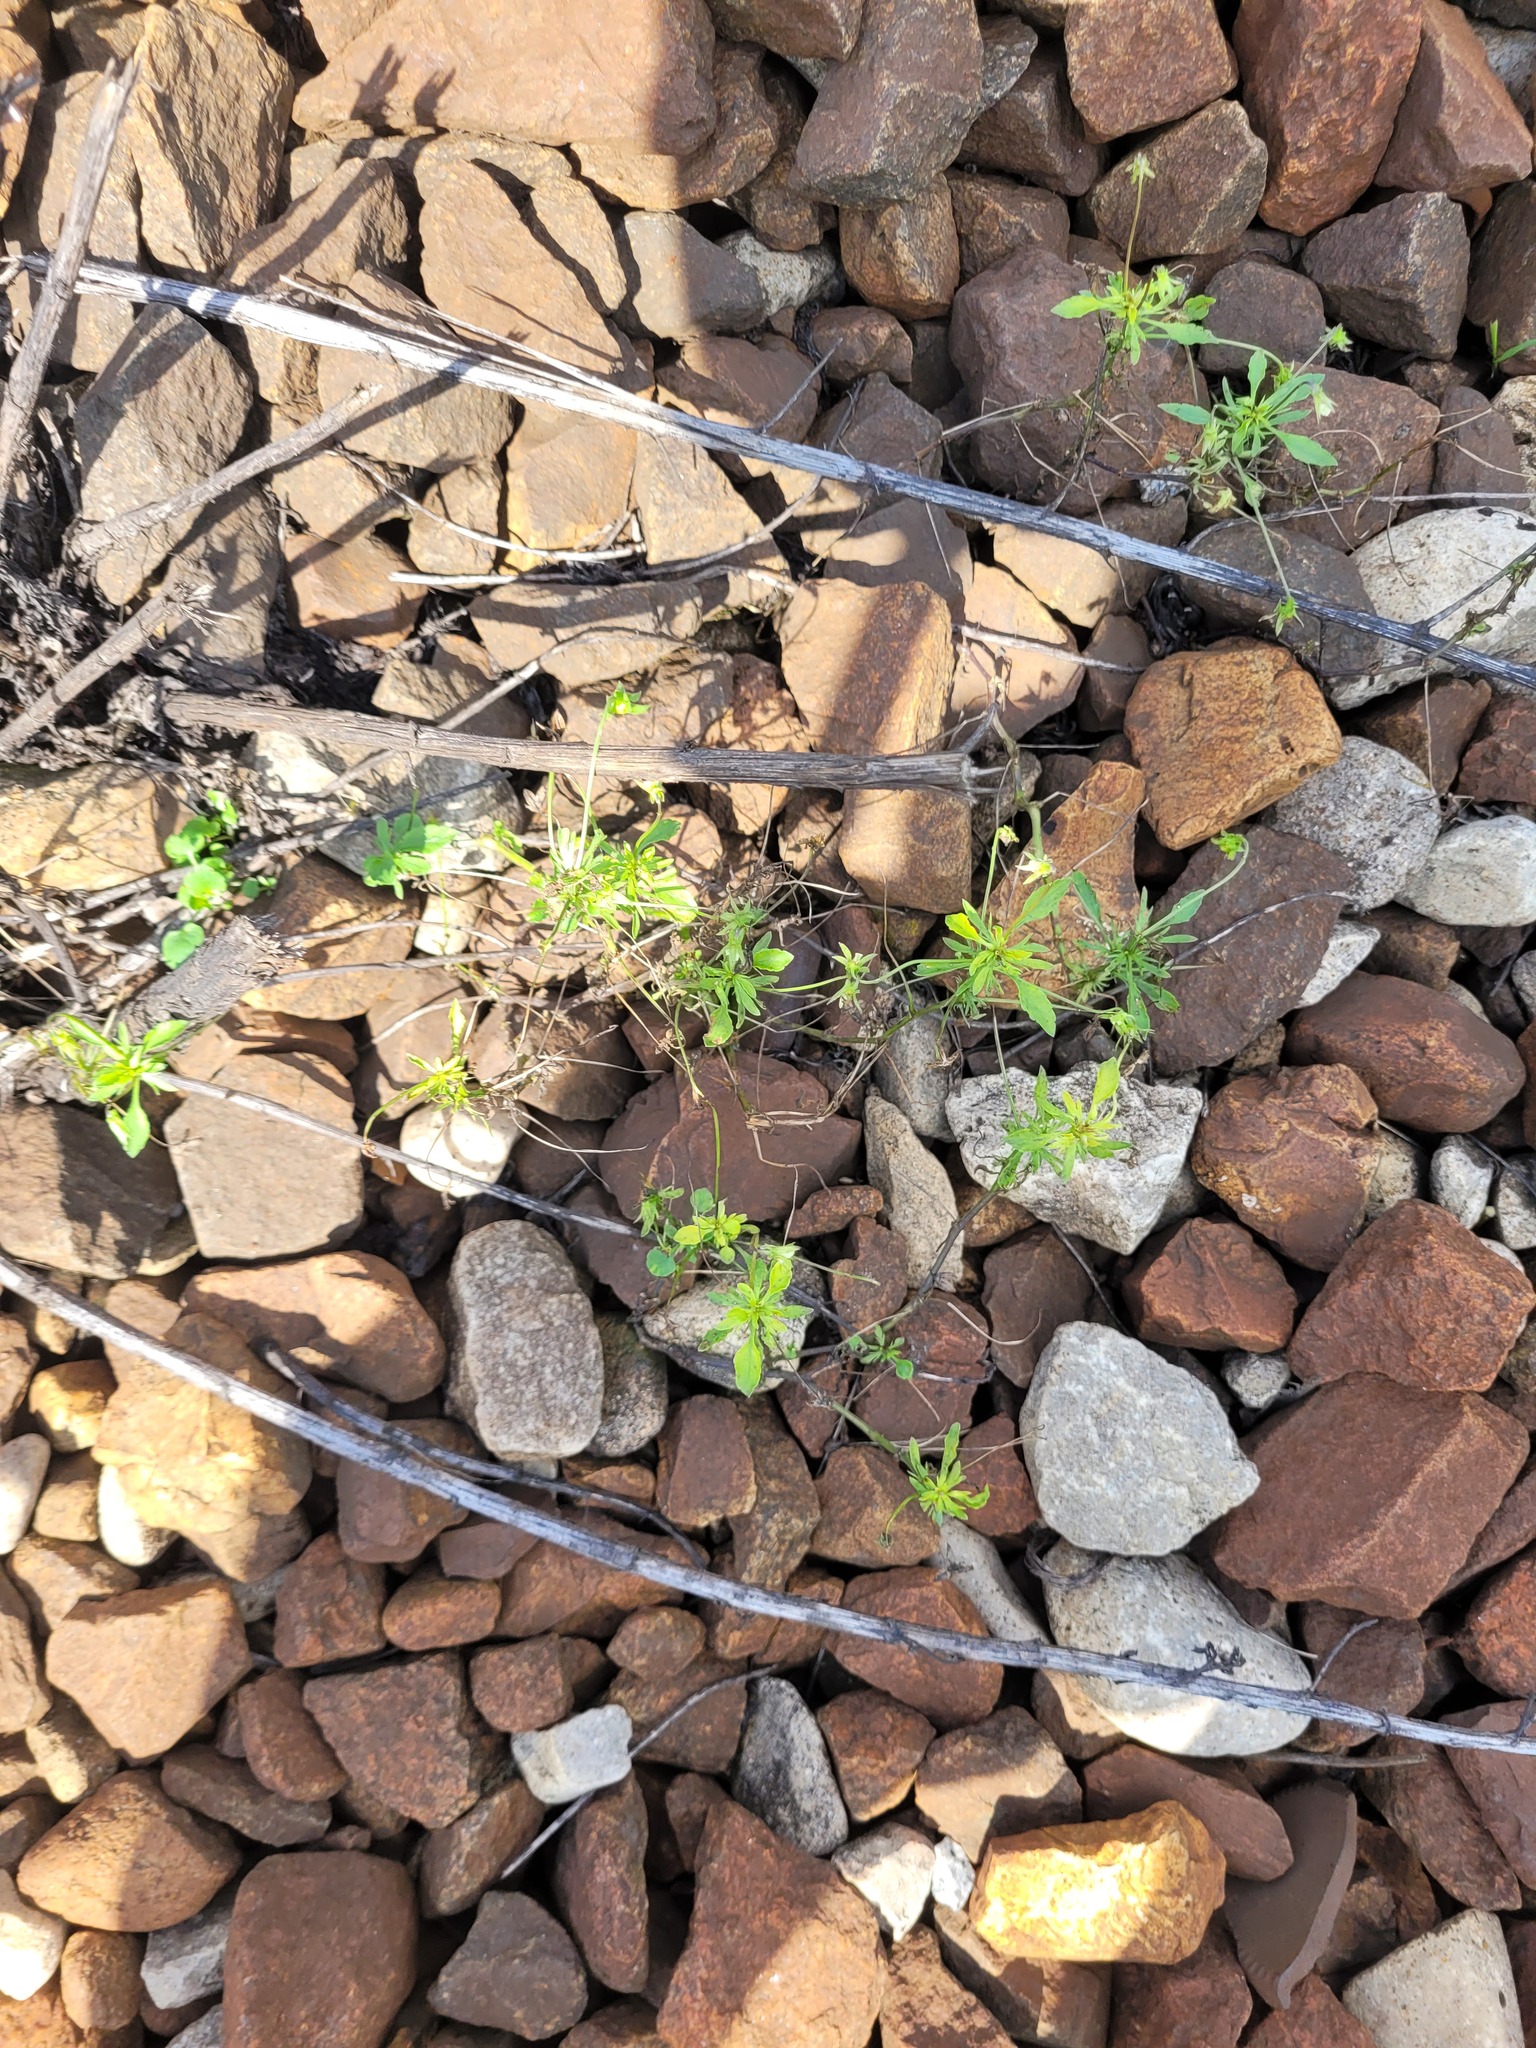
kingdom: Plantae
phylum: Tracheophyta
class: Magnoliopsida
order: Malpighiales
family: Violaceae
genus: Viola
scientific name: Viola arvensis
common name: Field pansy
